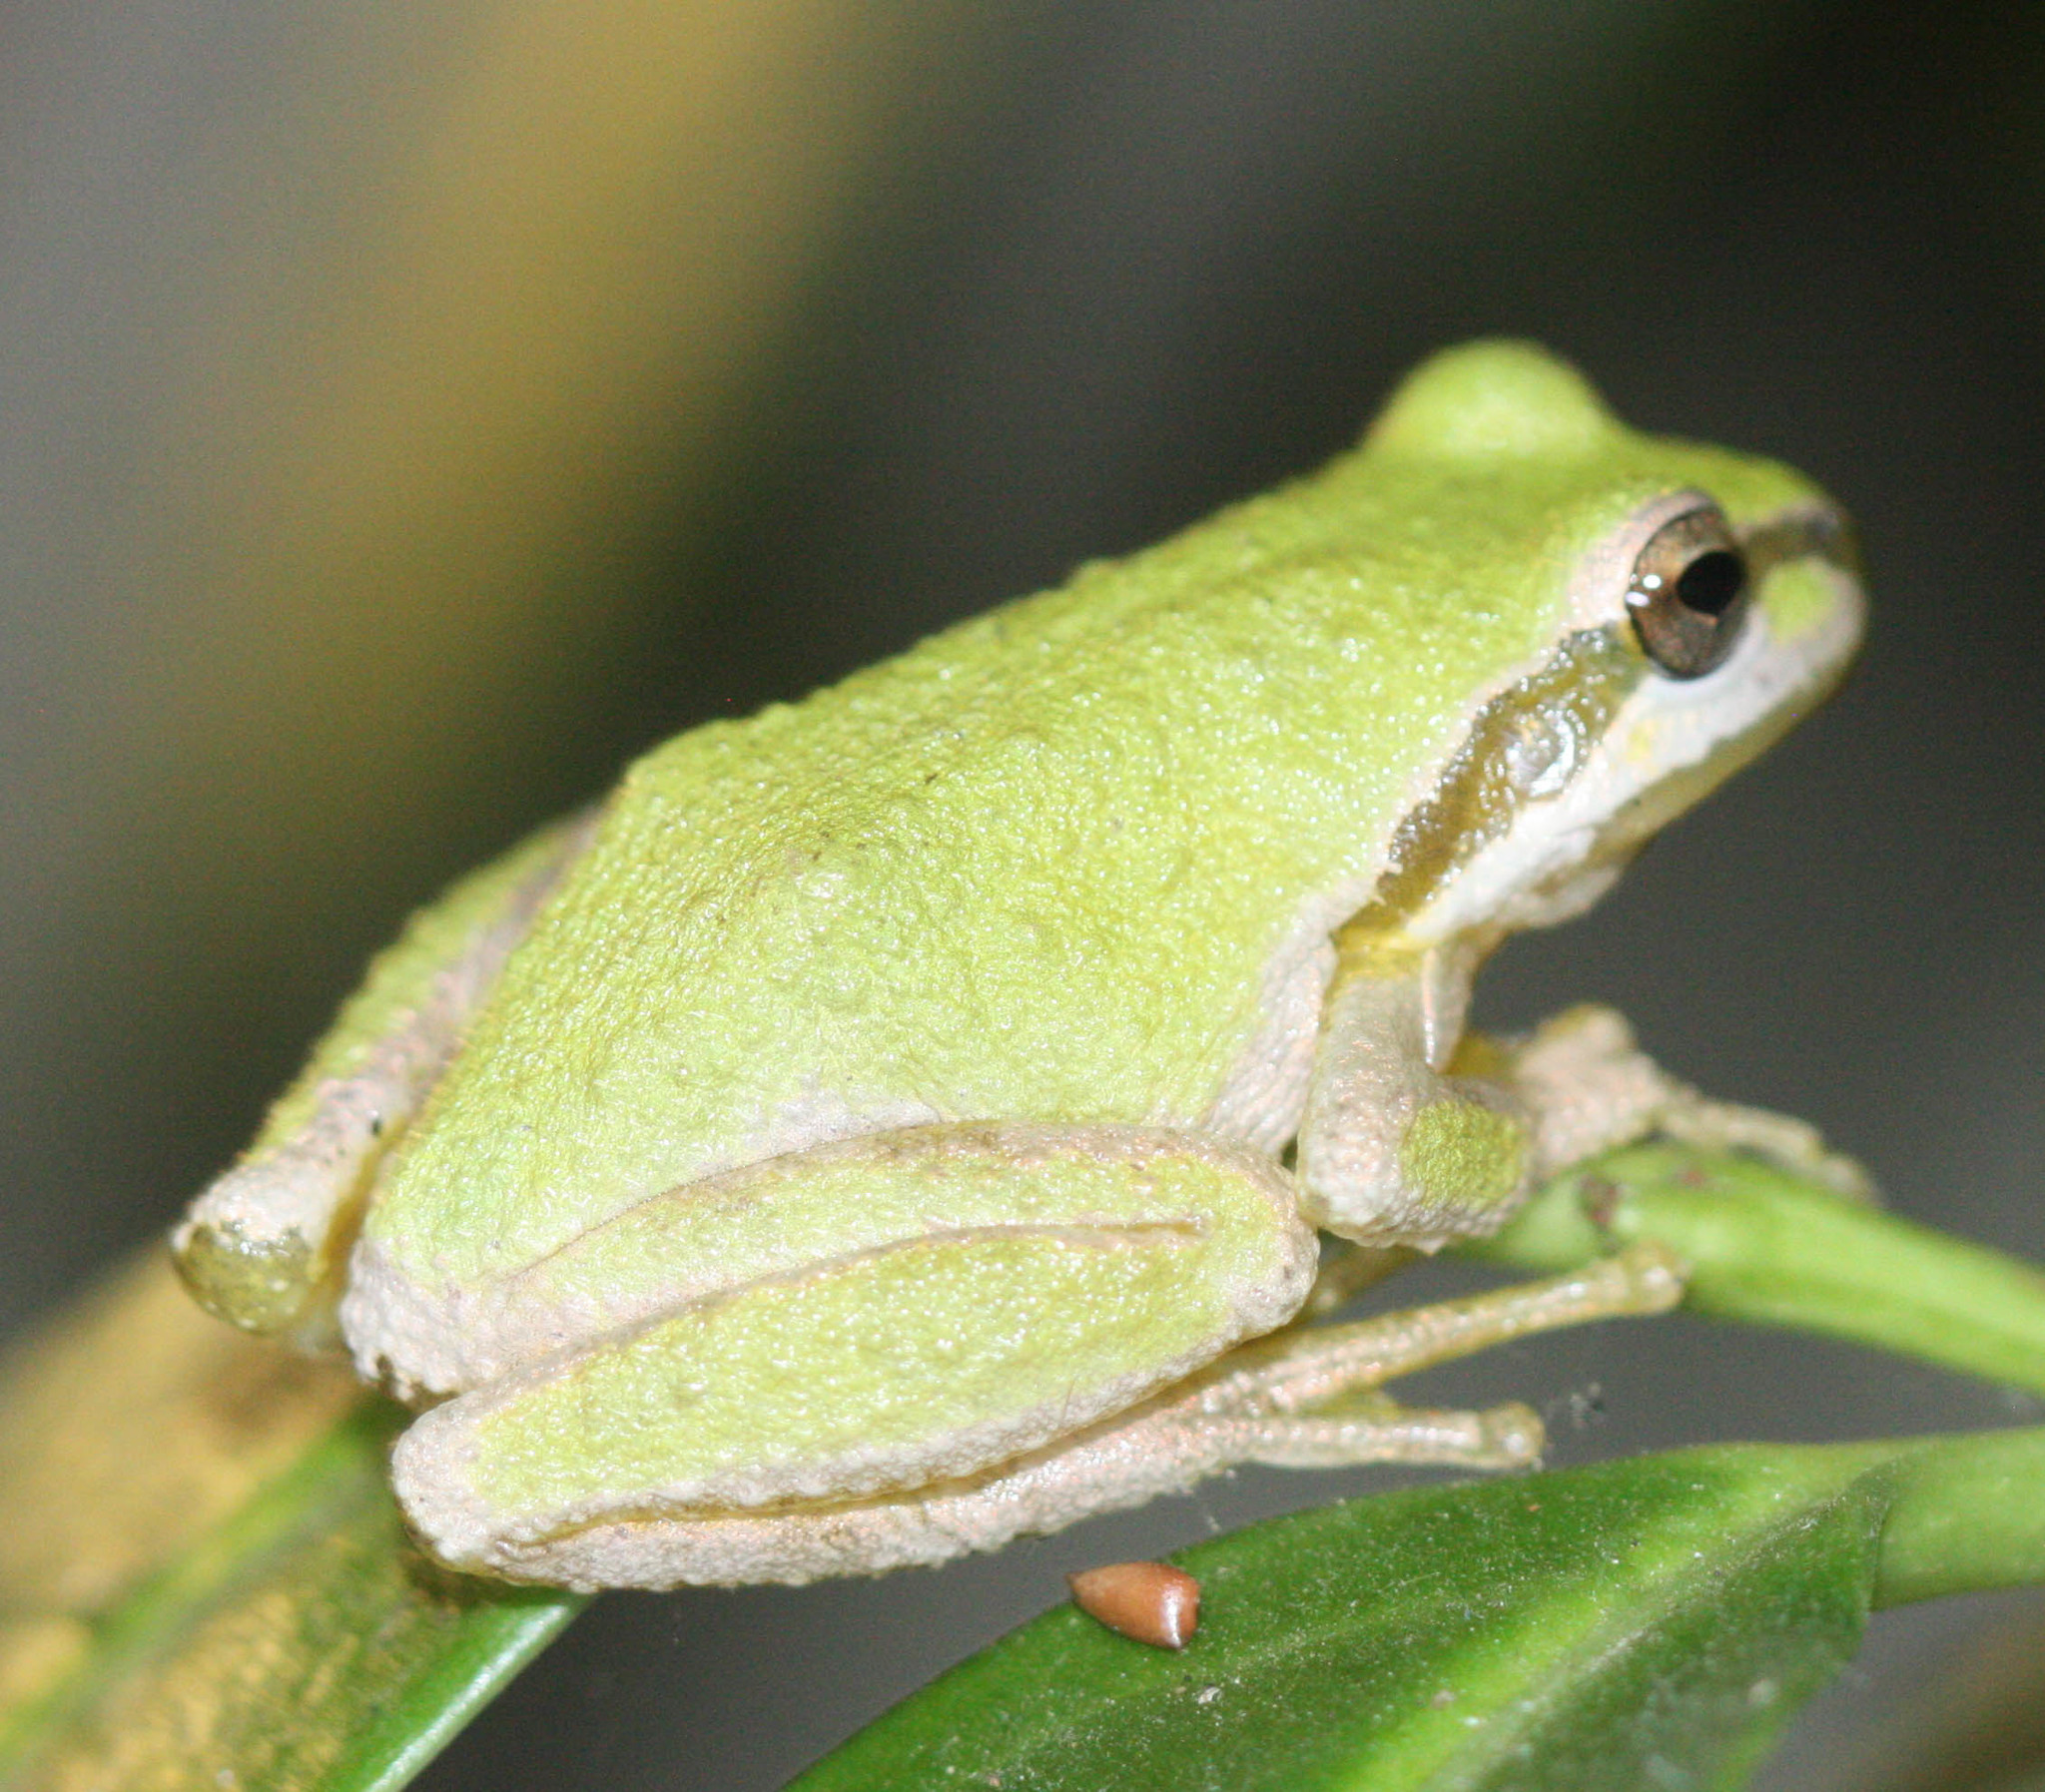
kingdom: Animalia
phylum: Chordata
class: Amphibia
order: Anura
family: Hylidae
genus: Pseudacris
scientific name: Pseudacris regilla
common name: Pacific chorus frog
